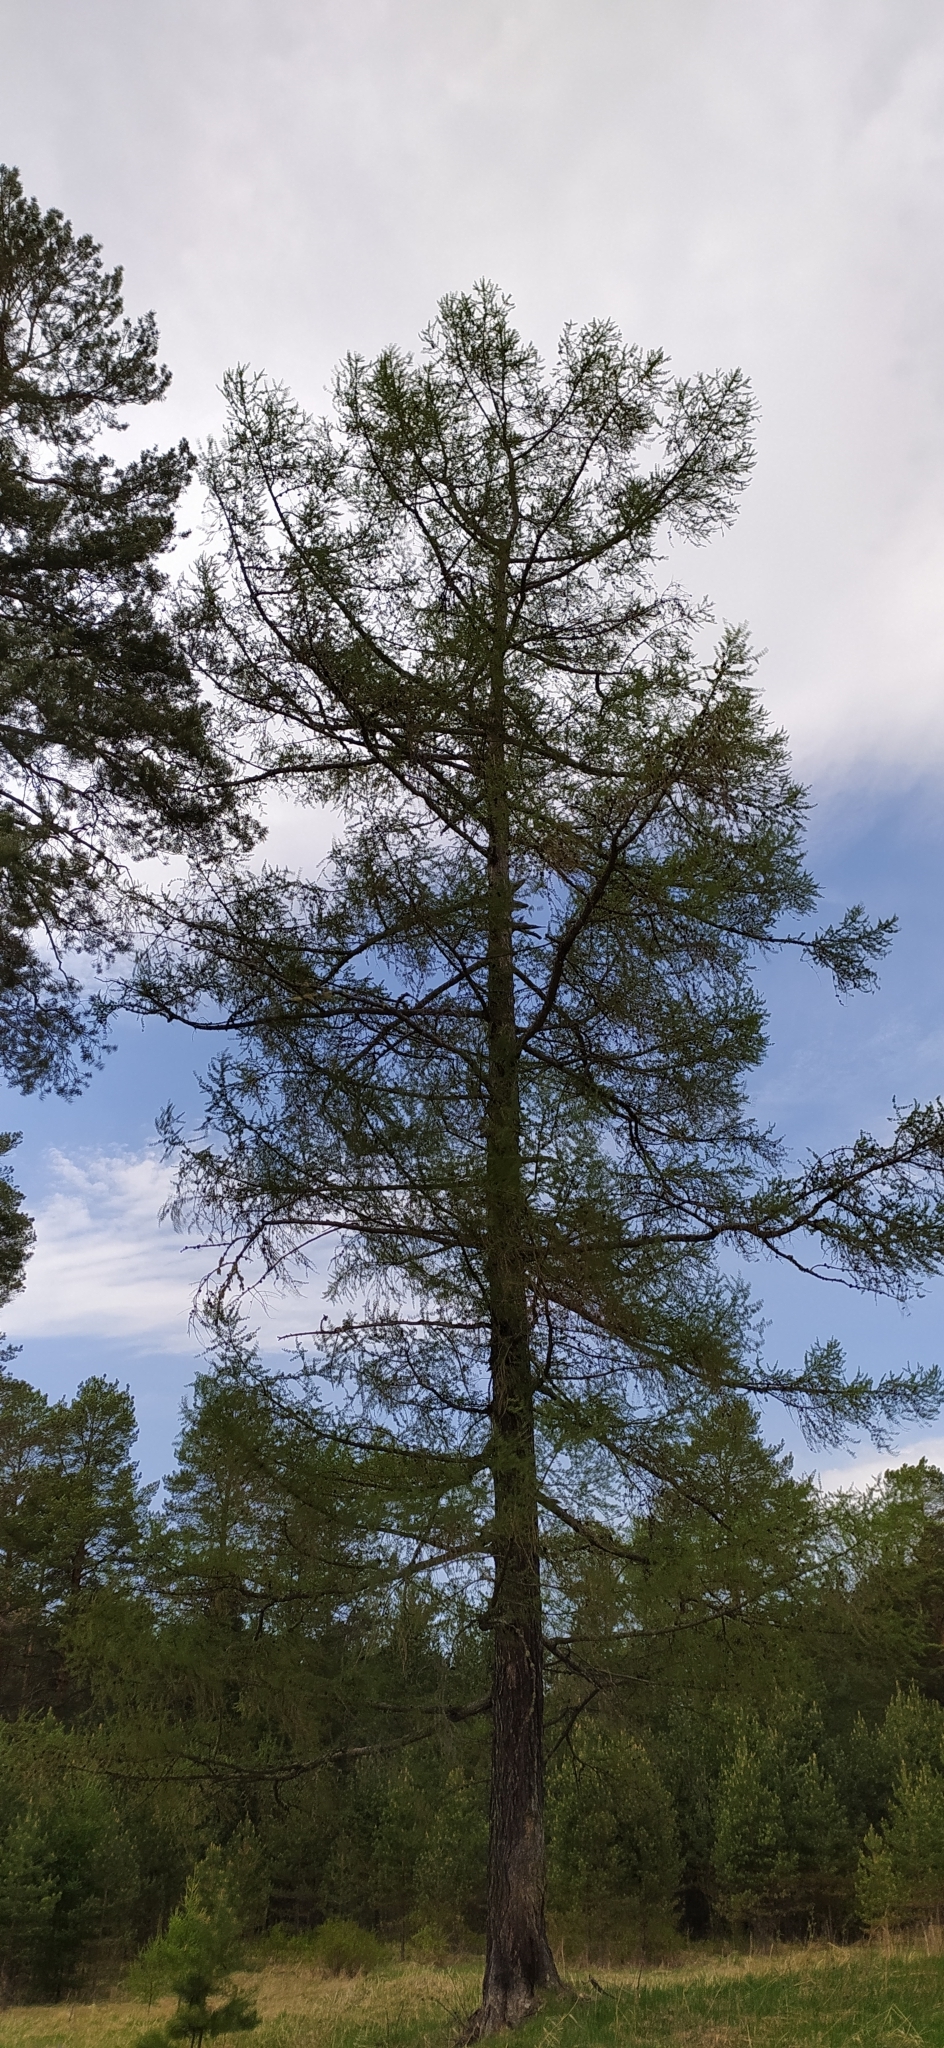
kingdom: Plantae
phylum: Tracheophyta
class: Pinopsida
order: Pinales
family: Pinaceae
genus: Larix
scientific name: Larix sibirica
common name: Siberian larch
